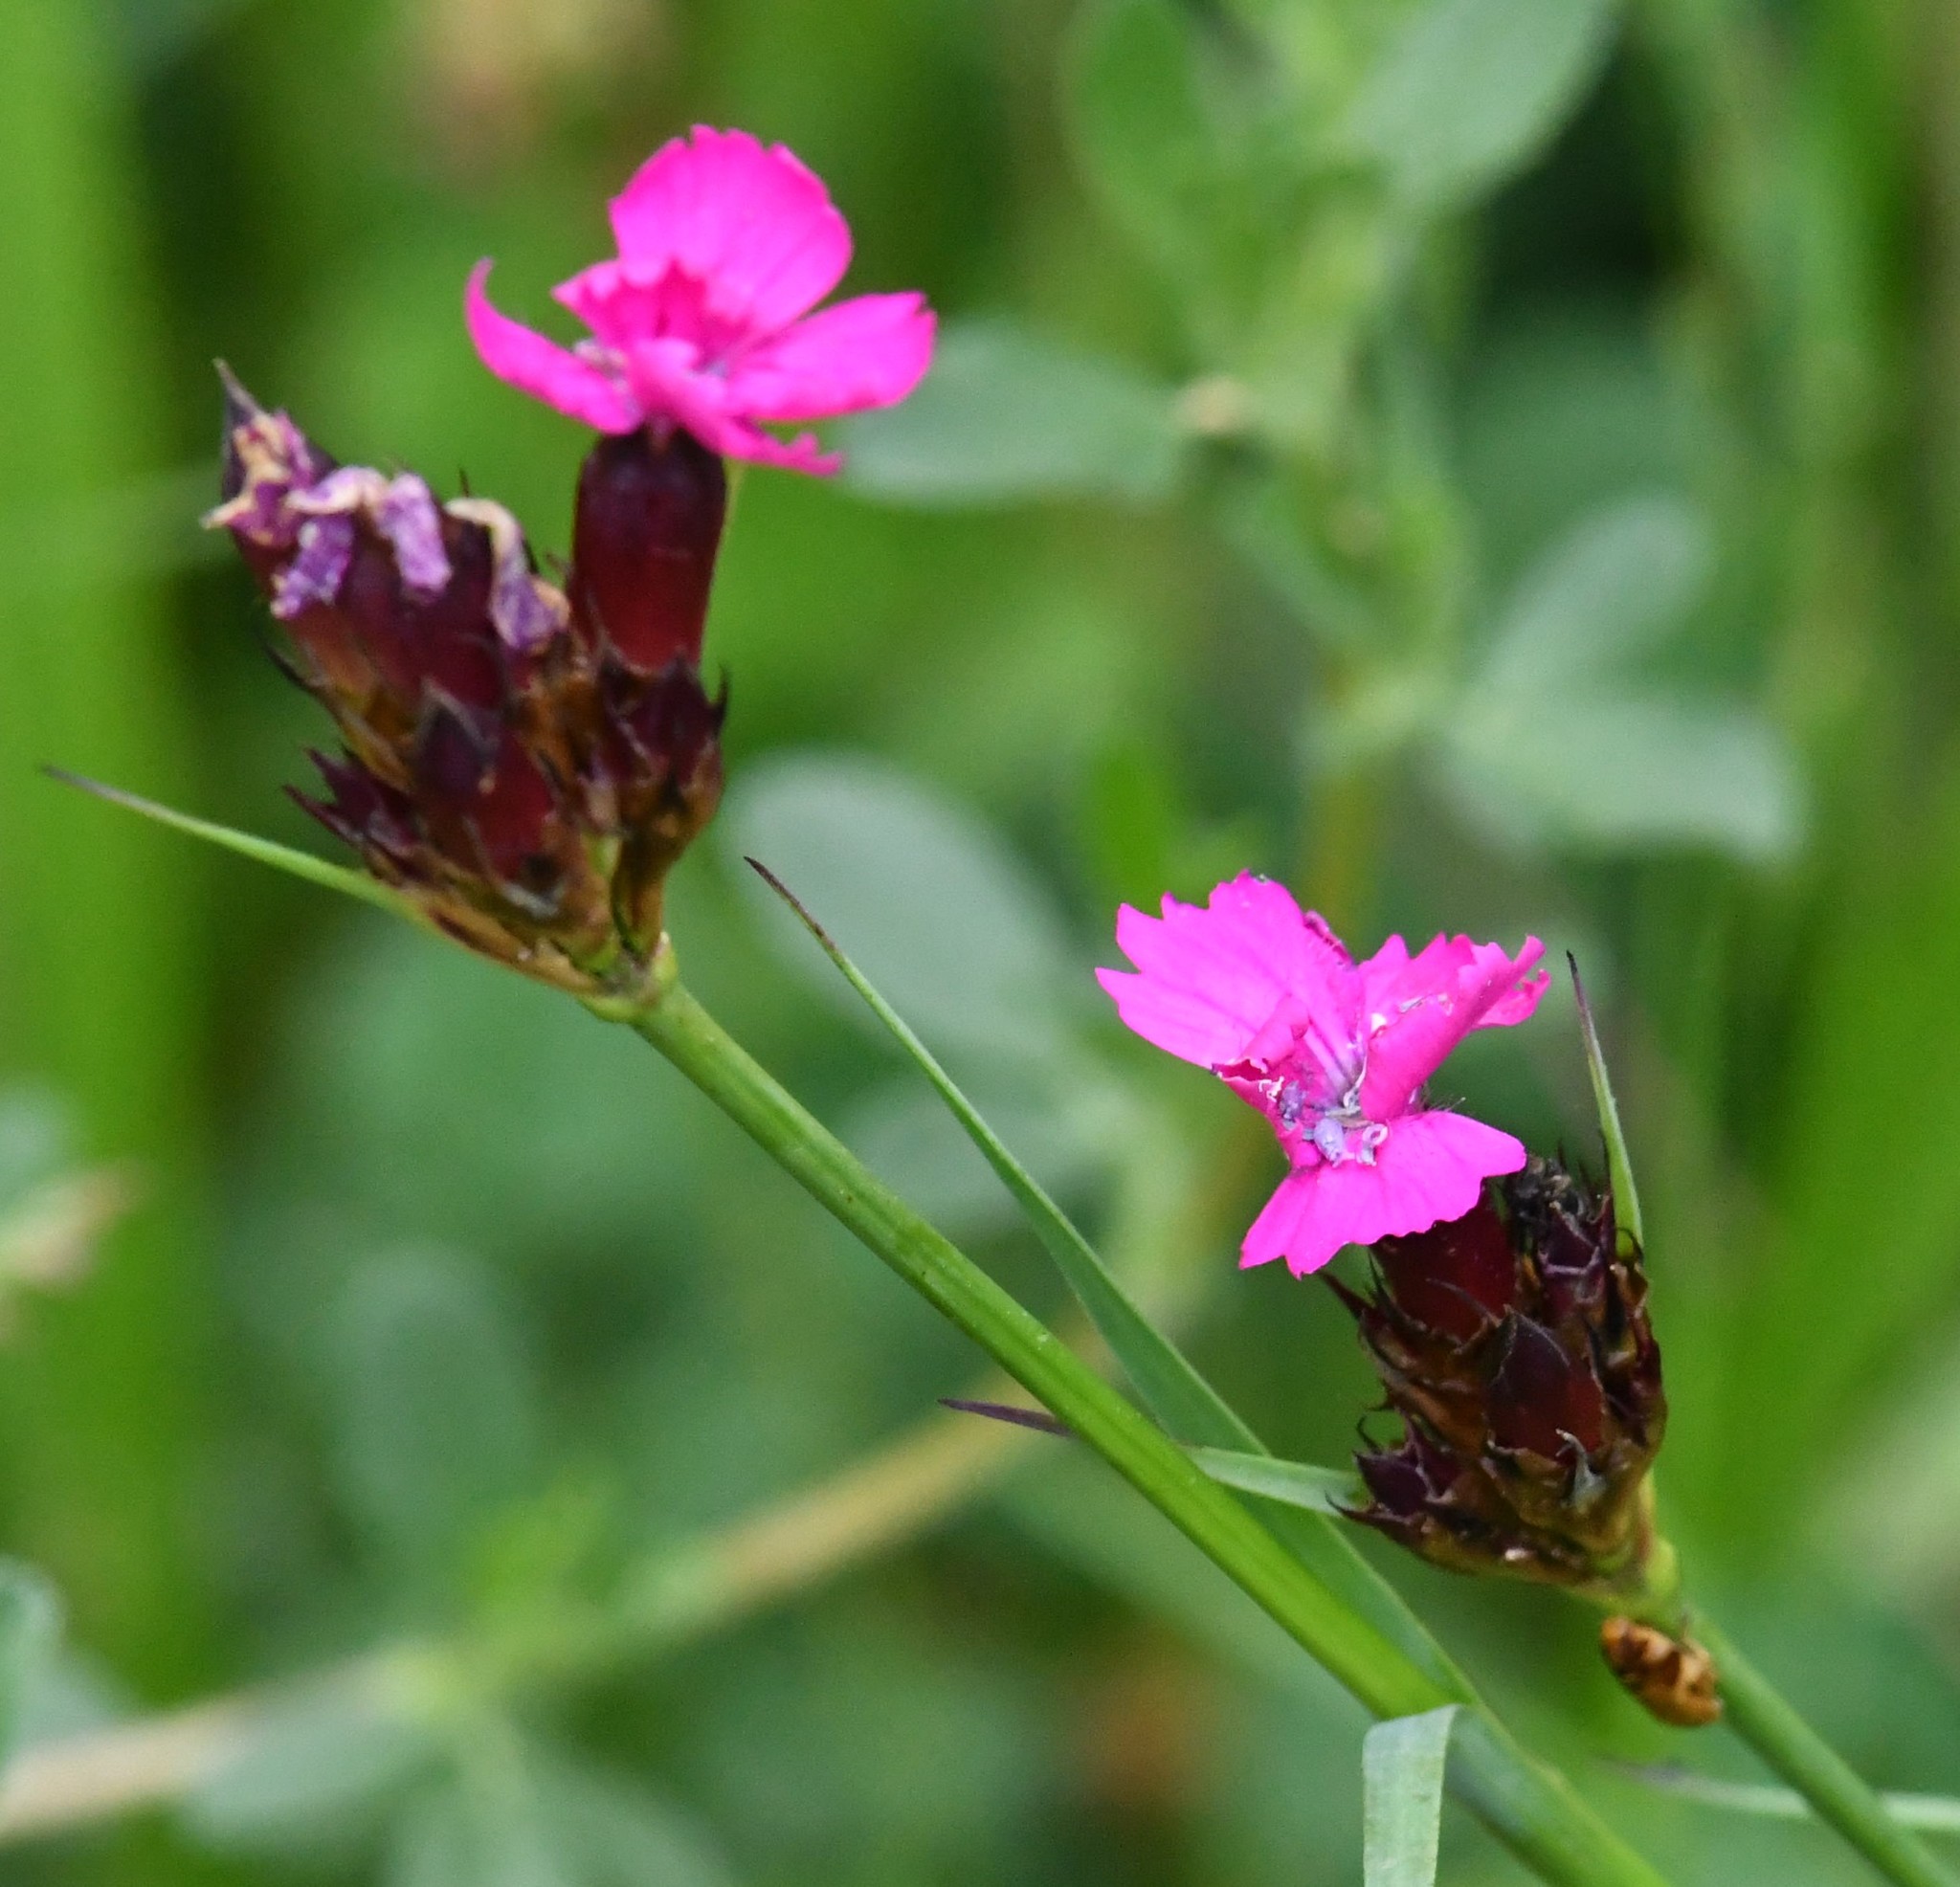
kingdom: Plantae
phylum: Tracheophyta
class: Magnoliopsida
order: Caryophyllales
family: Caryophyllaceae
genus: Dianthus
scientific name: Dianthus carthusianorum
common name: Carthusian pink
